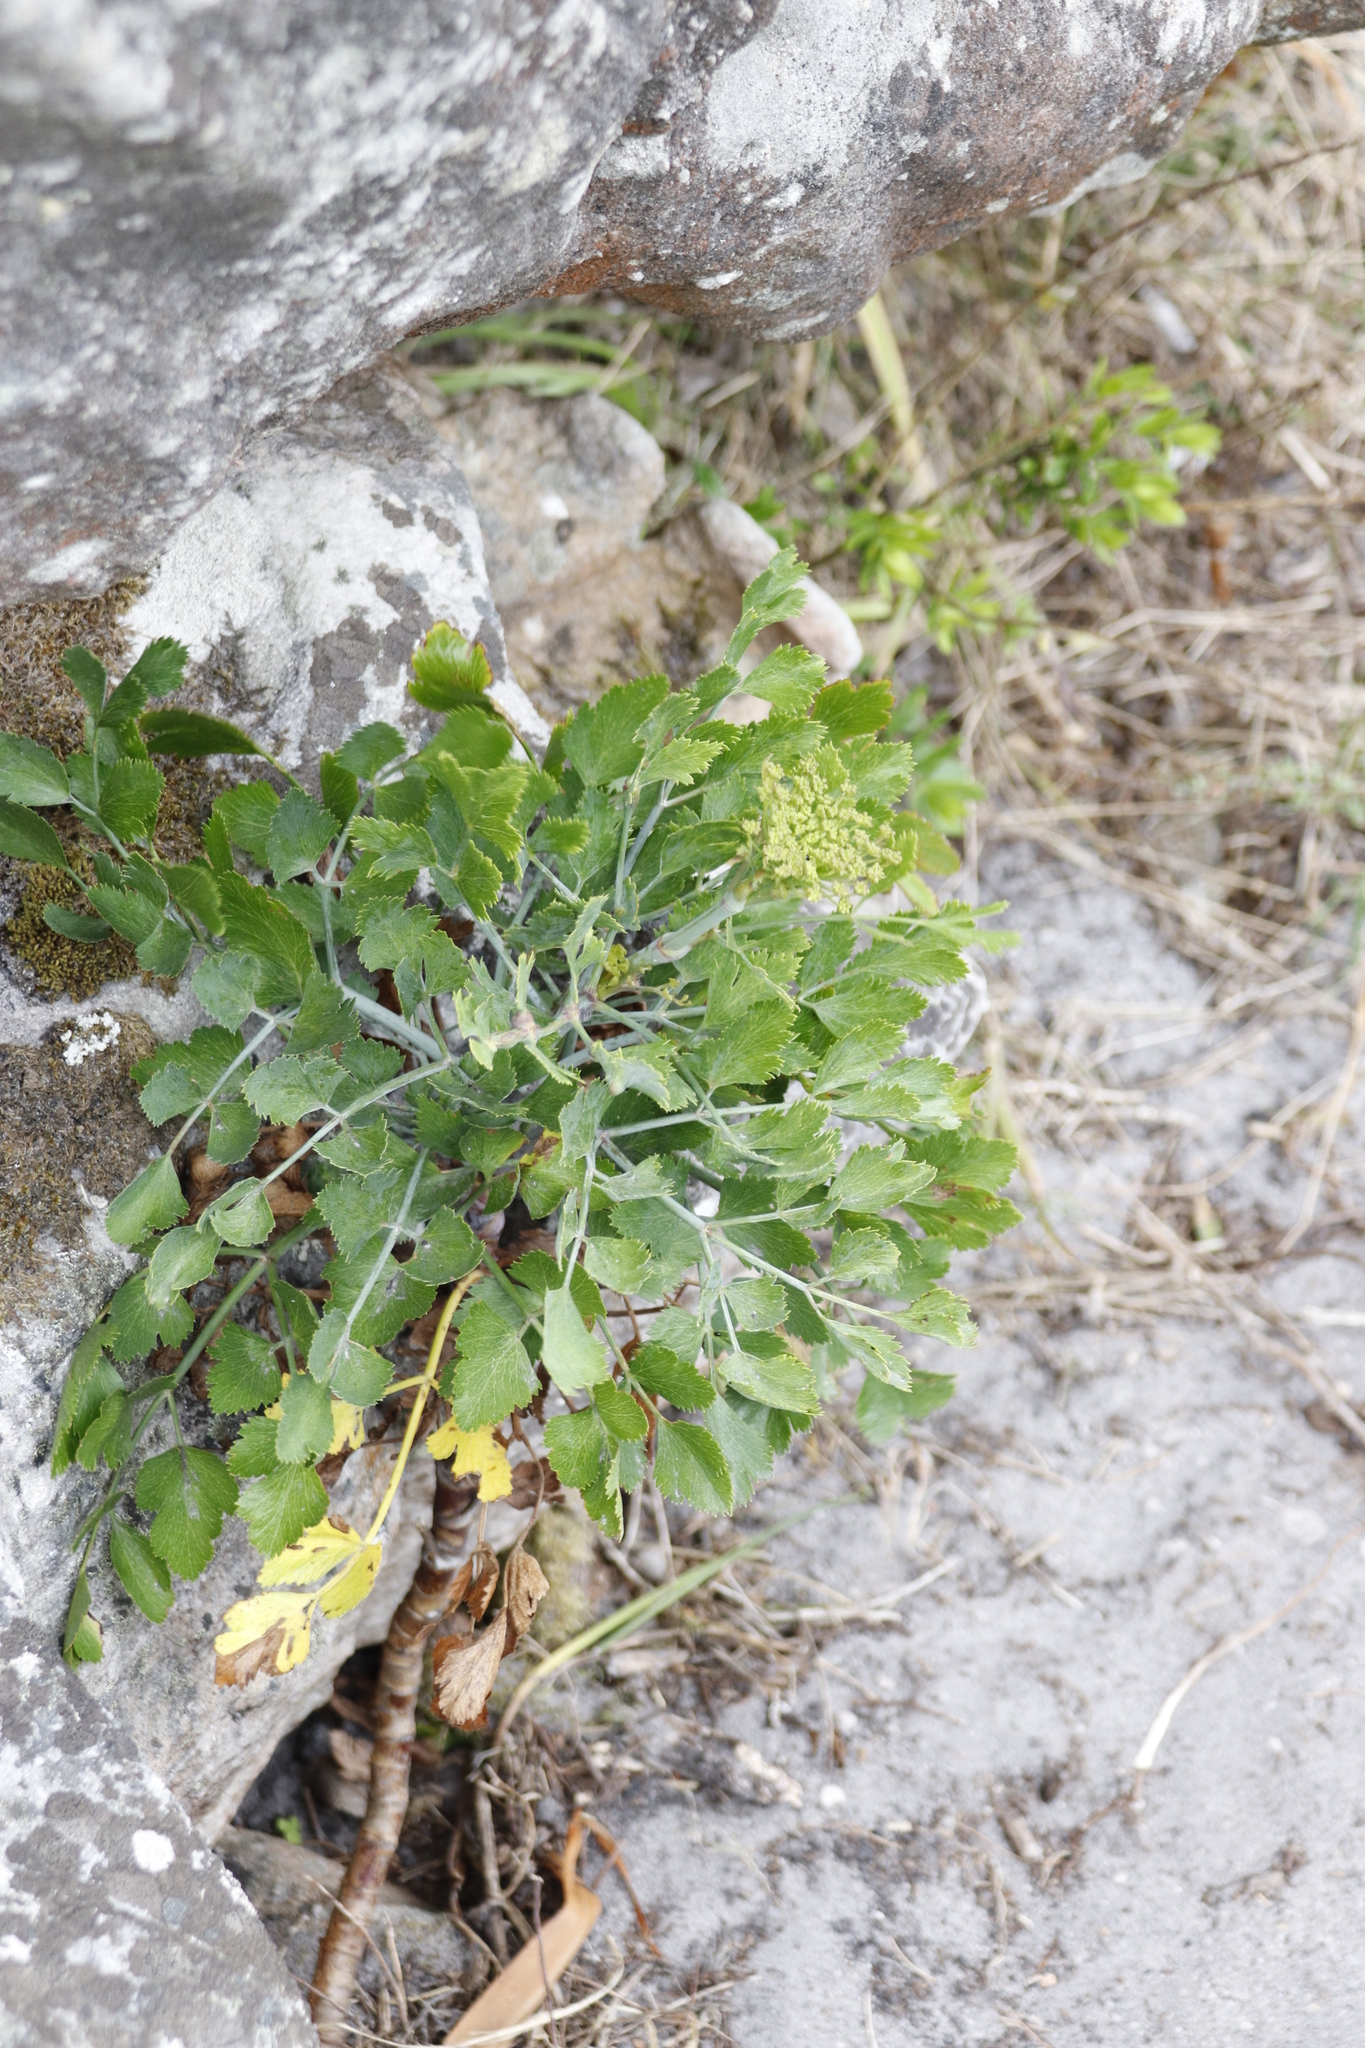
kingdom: Plantae
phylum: Tracheophyta
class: Magnoliopsida
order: Apiales
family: Apiaceae
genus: Notobubon
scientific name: Notobubon galbanum
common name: Blisterbush
